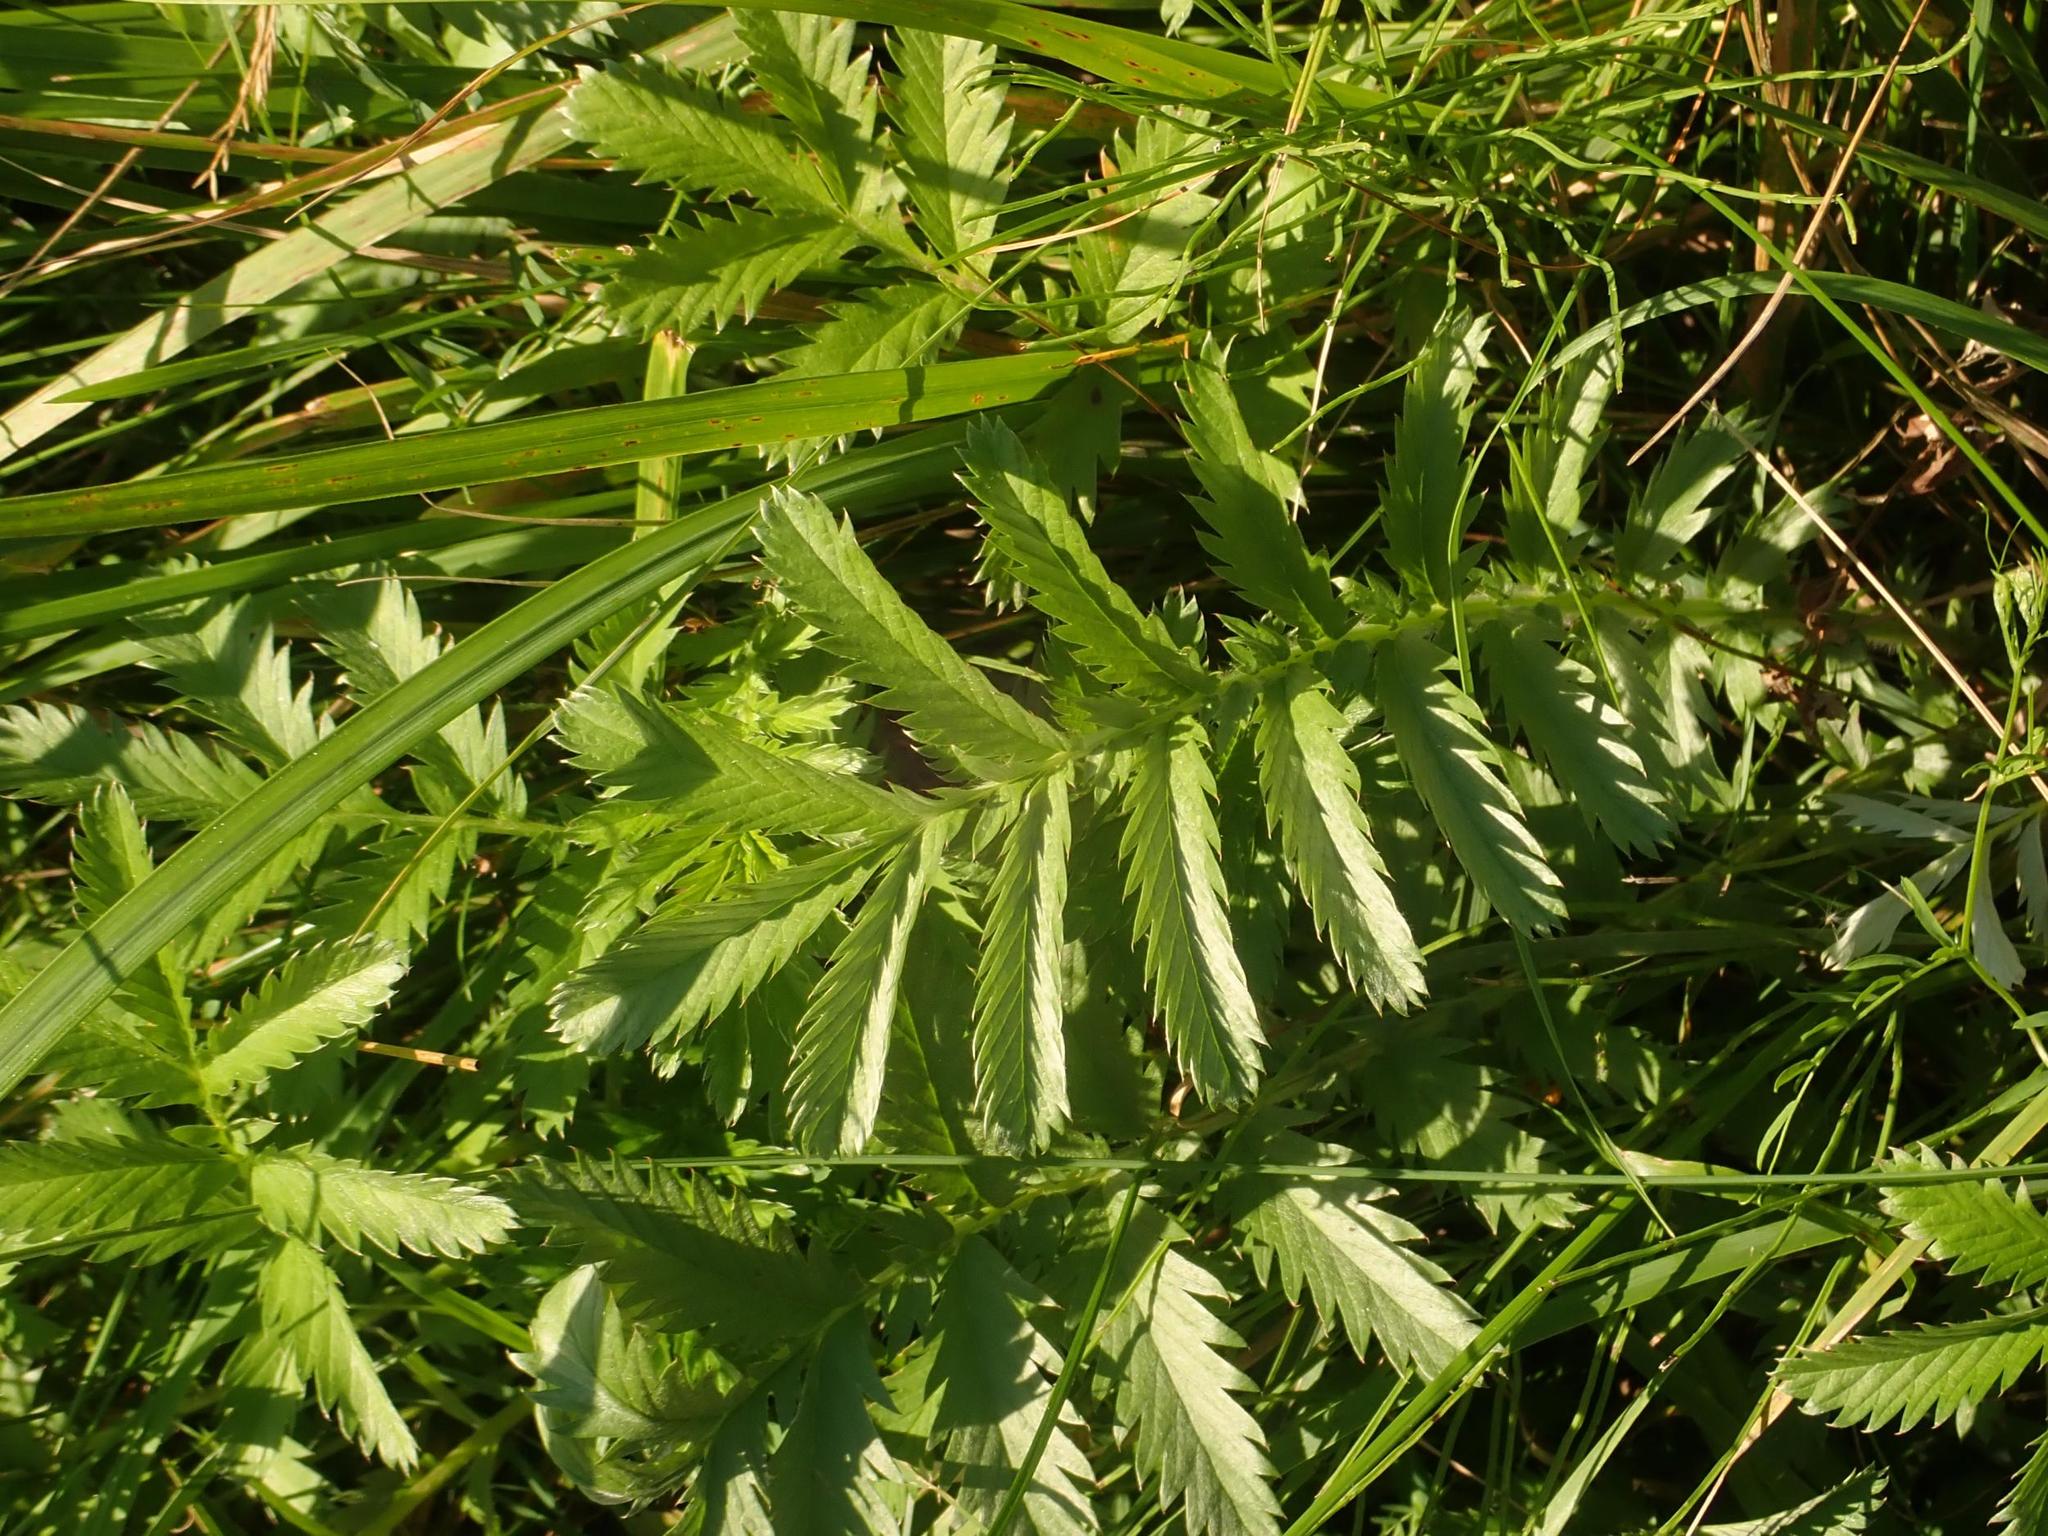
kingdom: Plantae
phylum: Tracheophyta
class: Magnoliopsida
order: Rosales
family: Rosaceae
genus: Argentina
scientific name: Argentina anserina
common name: Common silverweed
